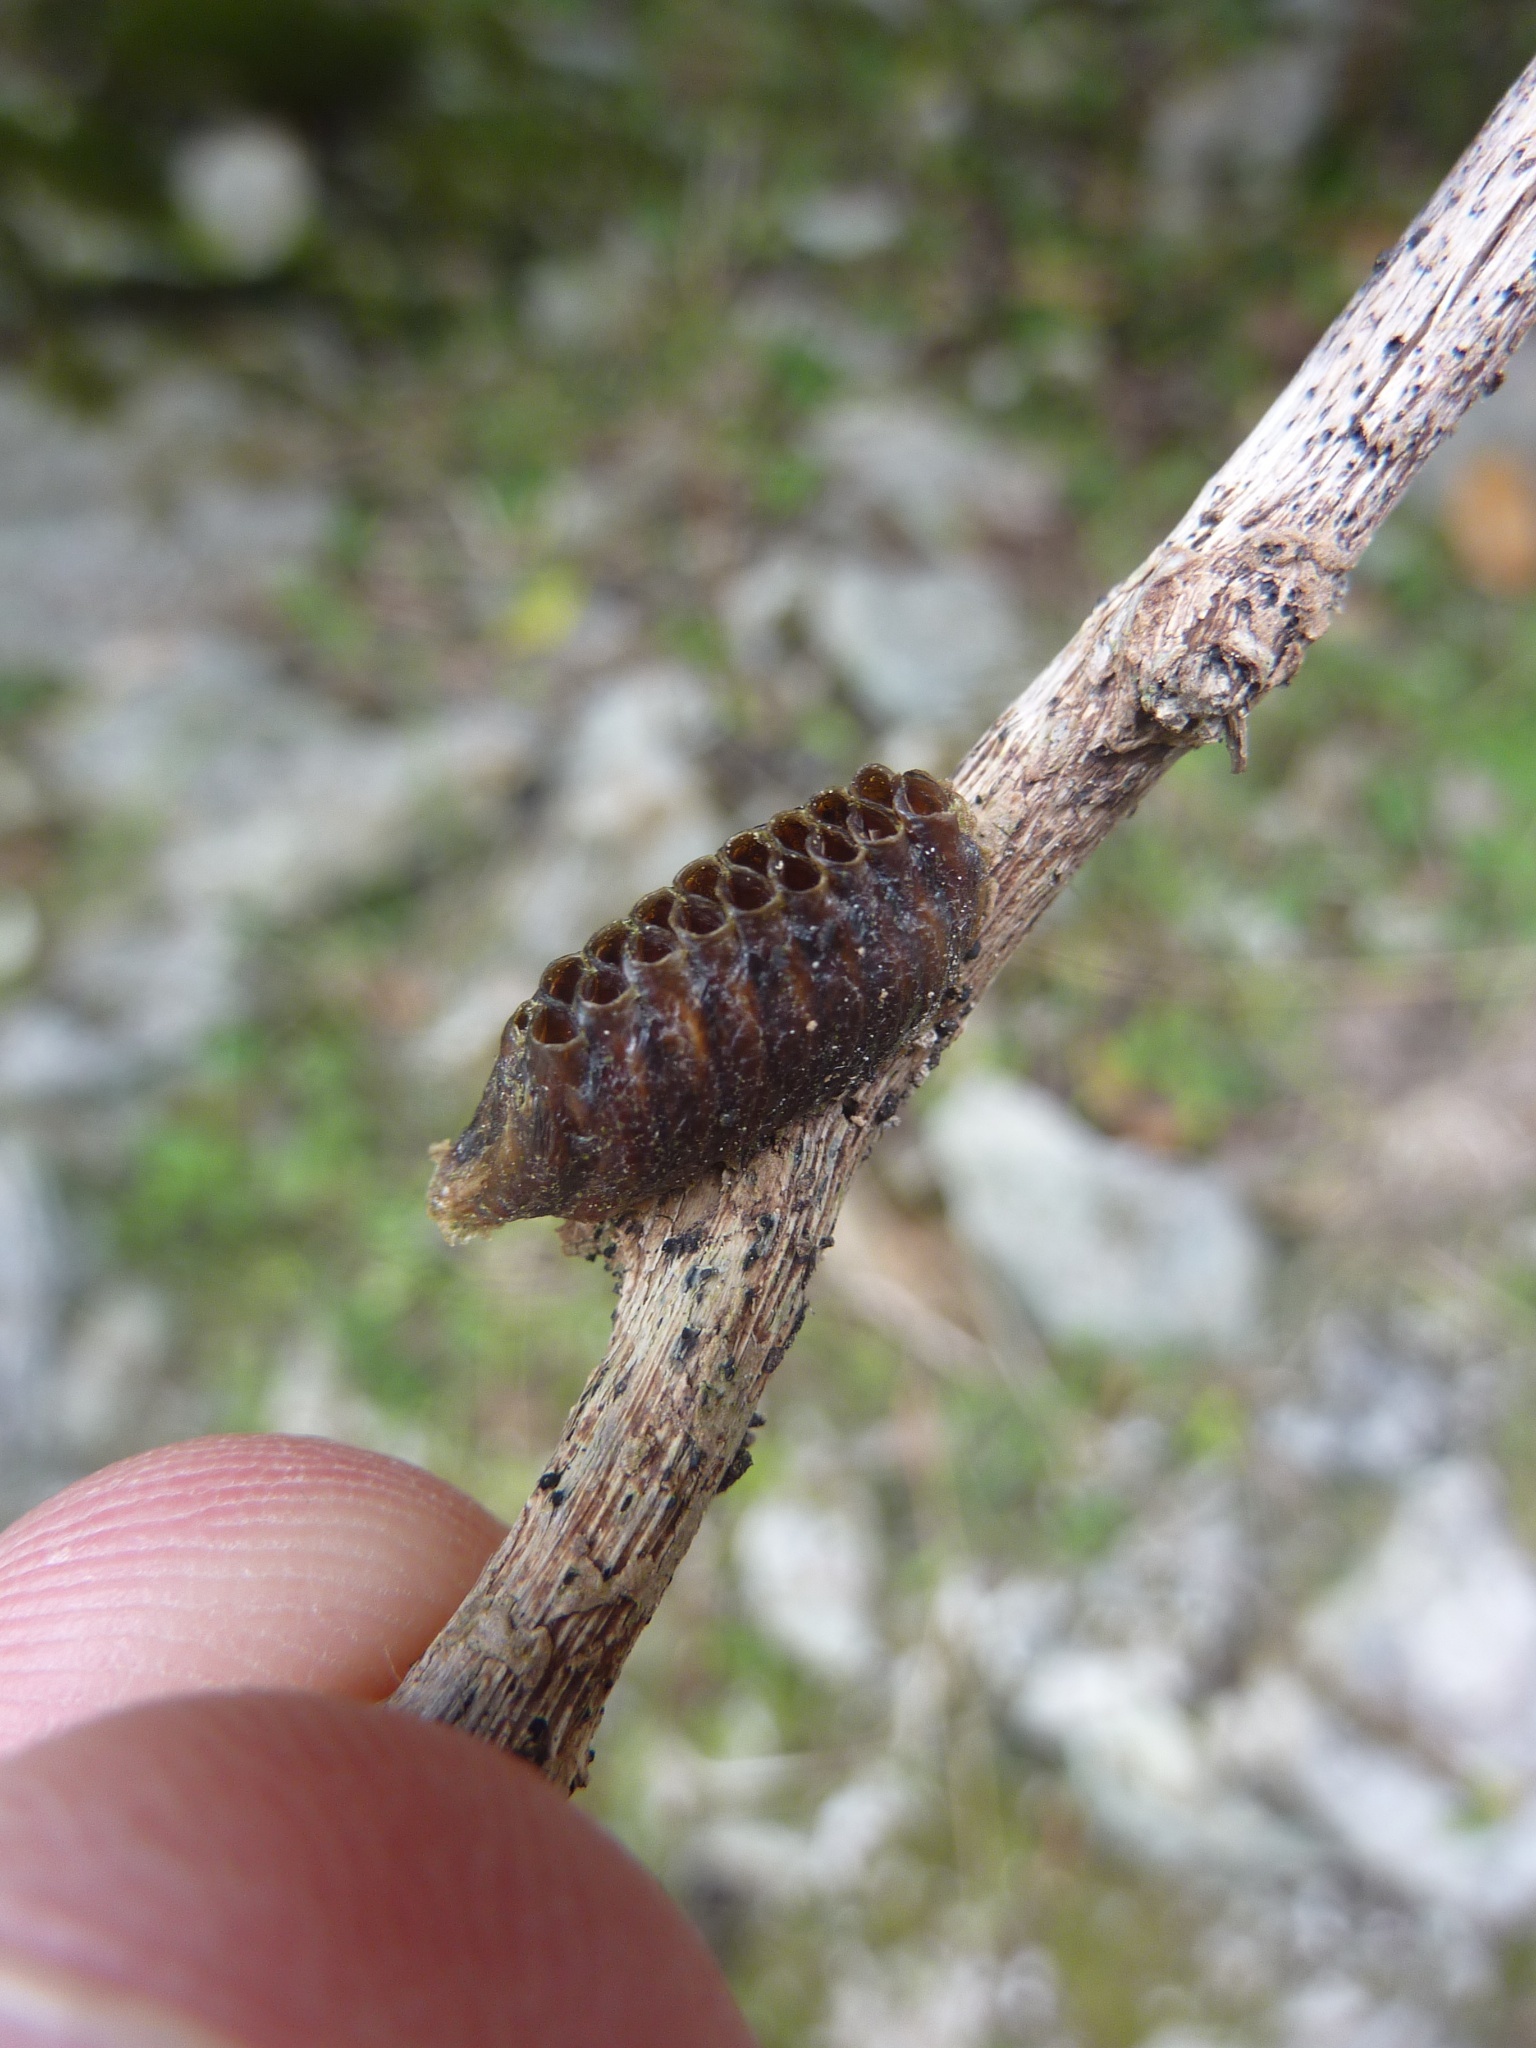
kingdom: Animalia
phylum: Arthropoda
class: Insecta
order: Mantodea
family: Mantidae
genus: Orthodera
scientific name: Orthodera novaezealandiae
